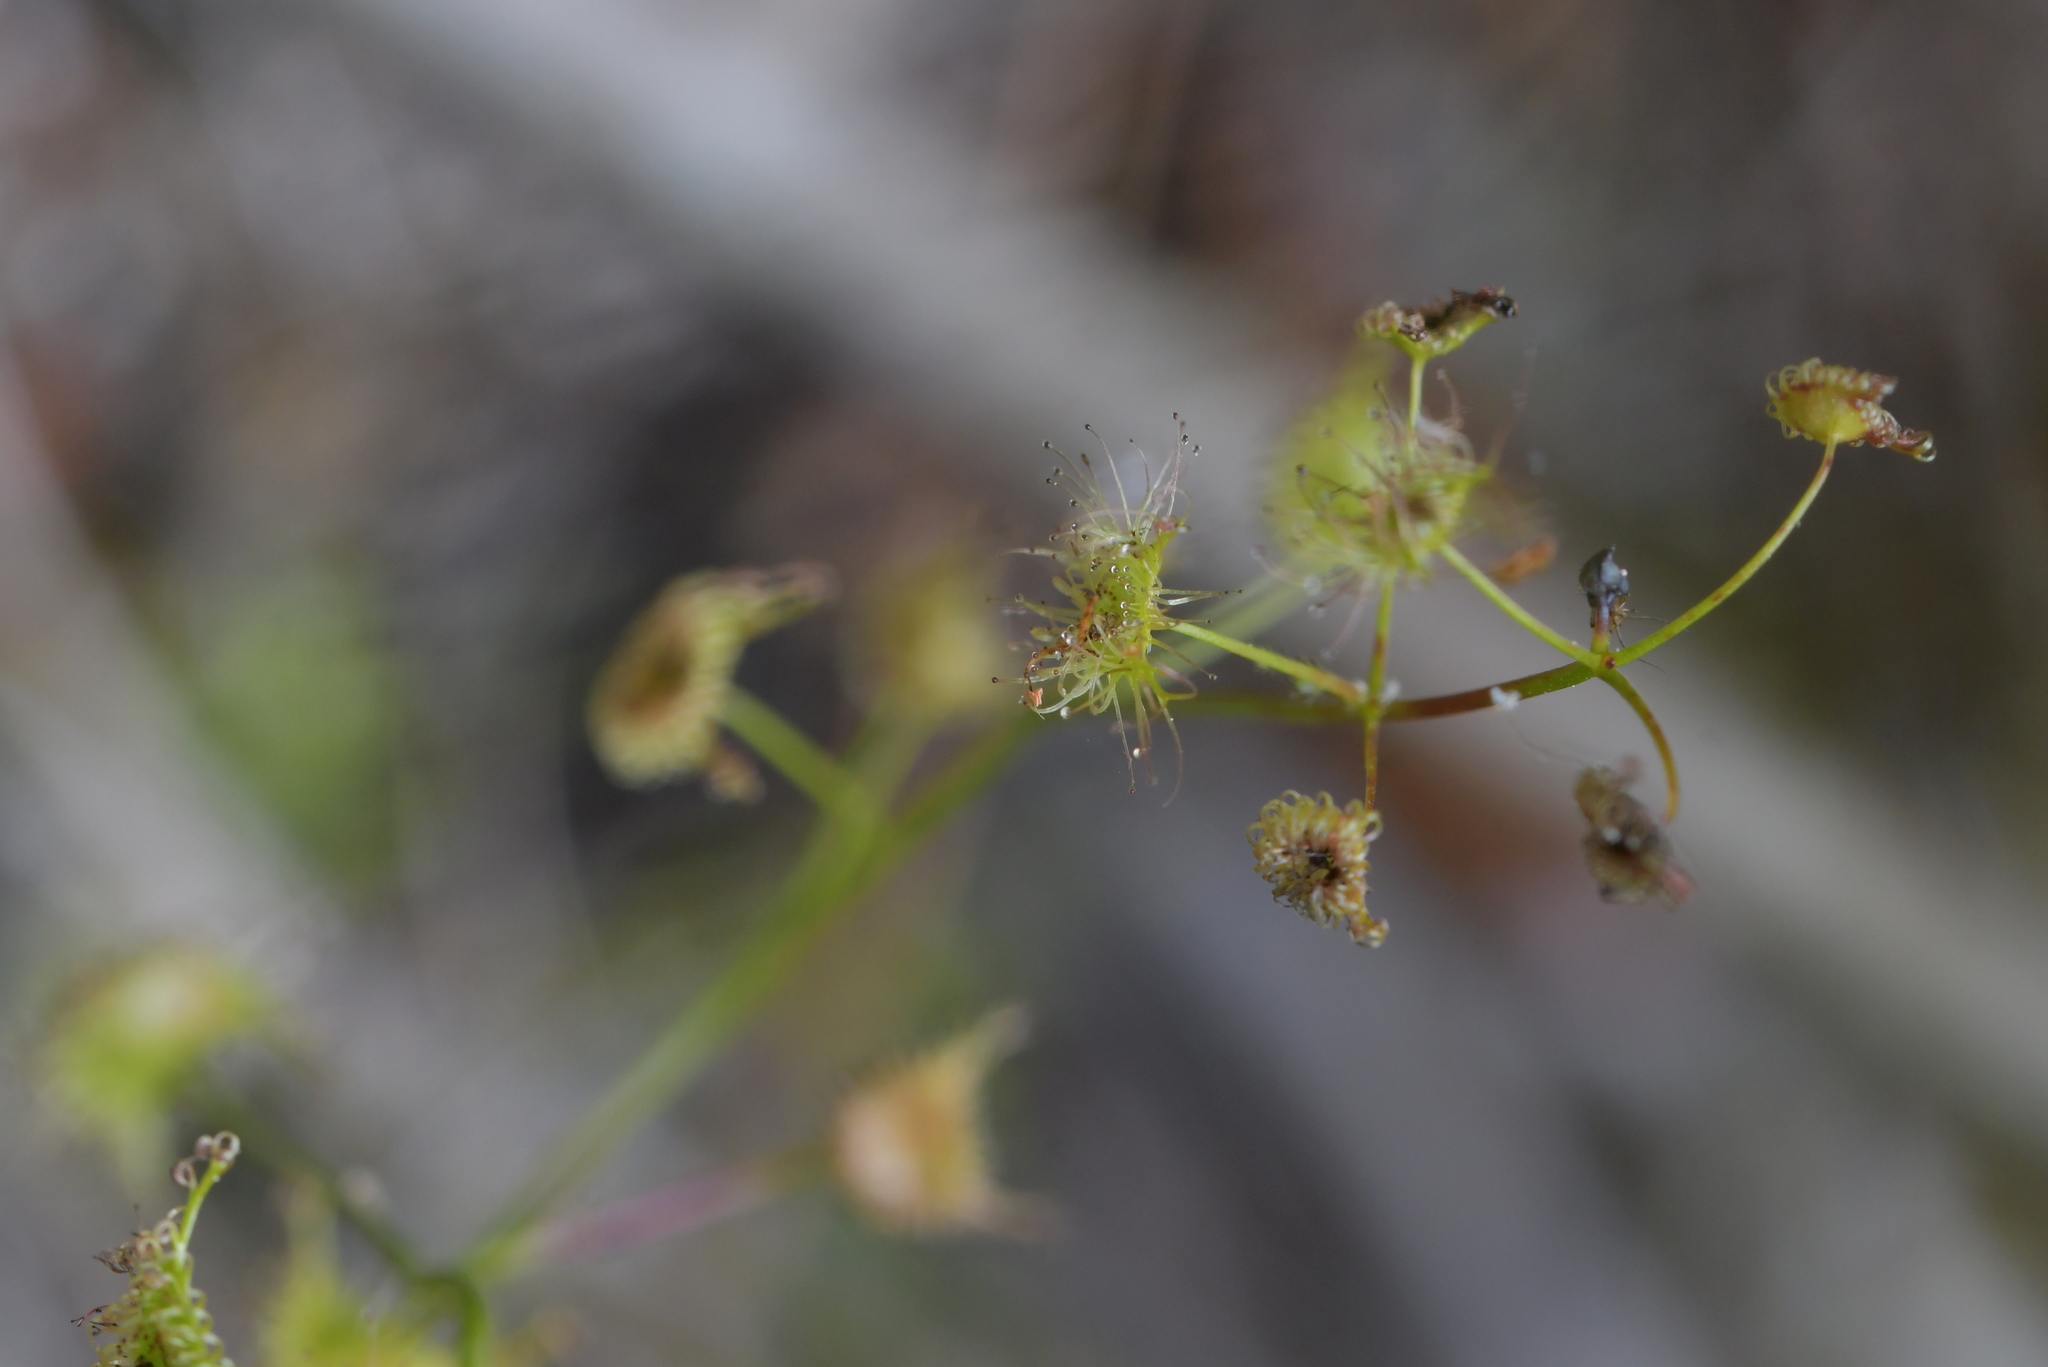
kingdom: Plantae
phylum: Tracheophyta
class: Magnoliopsida
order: Caryophyllales
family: Droseraceae
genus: Drosera
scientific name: Drosera peltata
